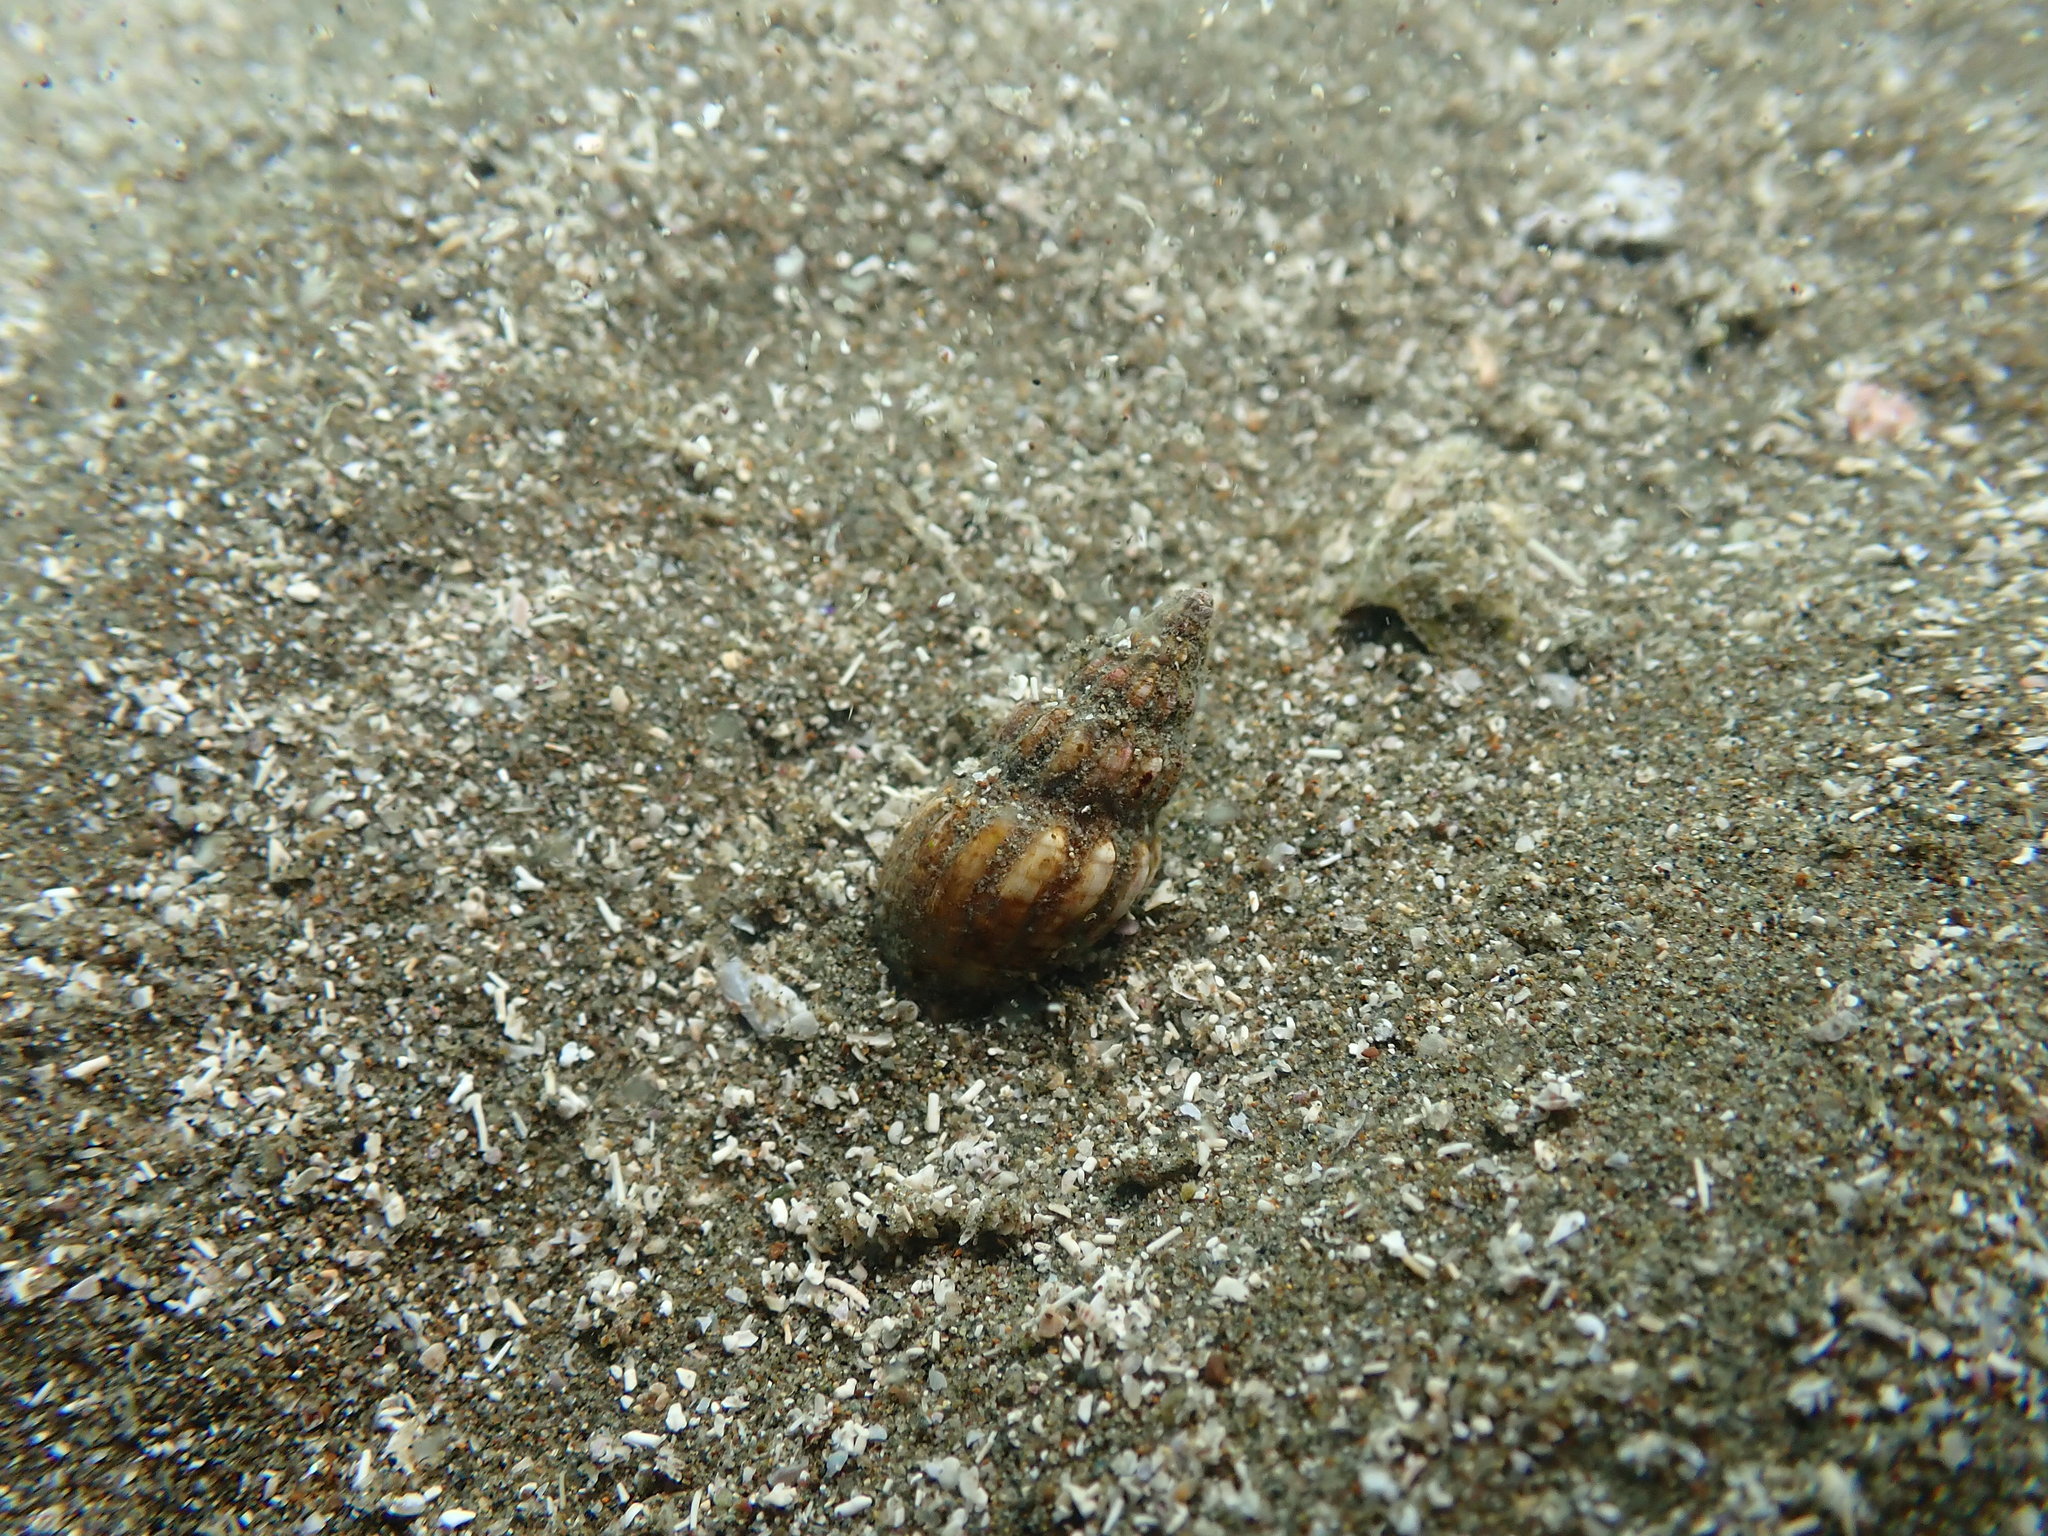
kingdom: Animalia
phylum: Mollusca
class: Gastropoda
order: Neogastropoda
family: Cominellidae
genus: Cominella
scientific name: Cominella quoyana
